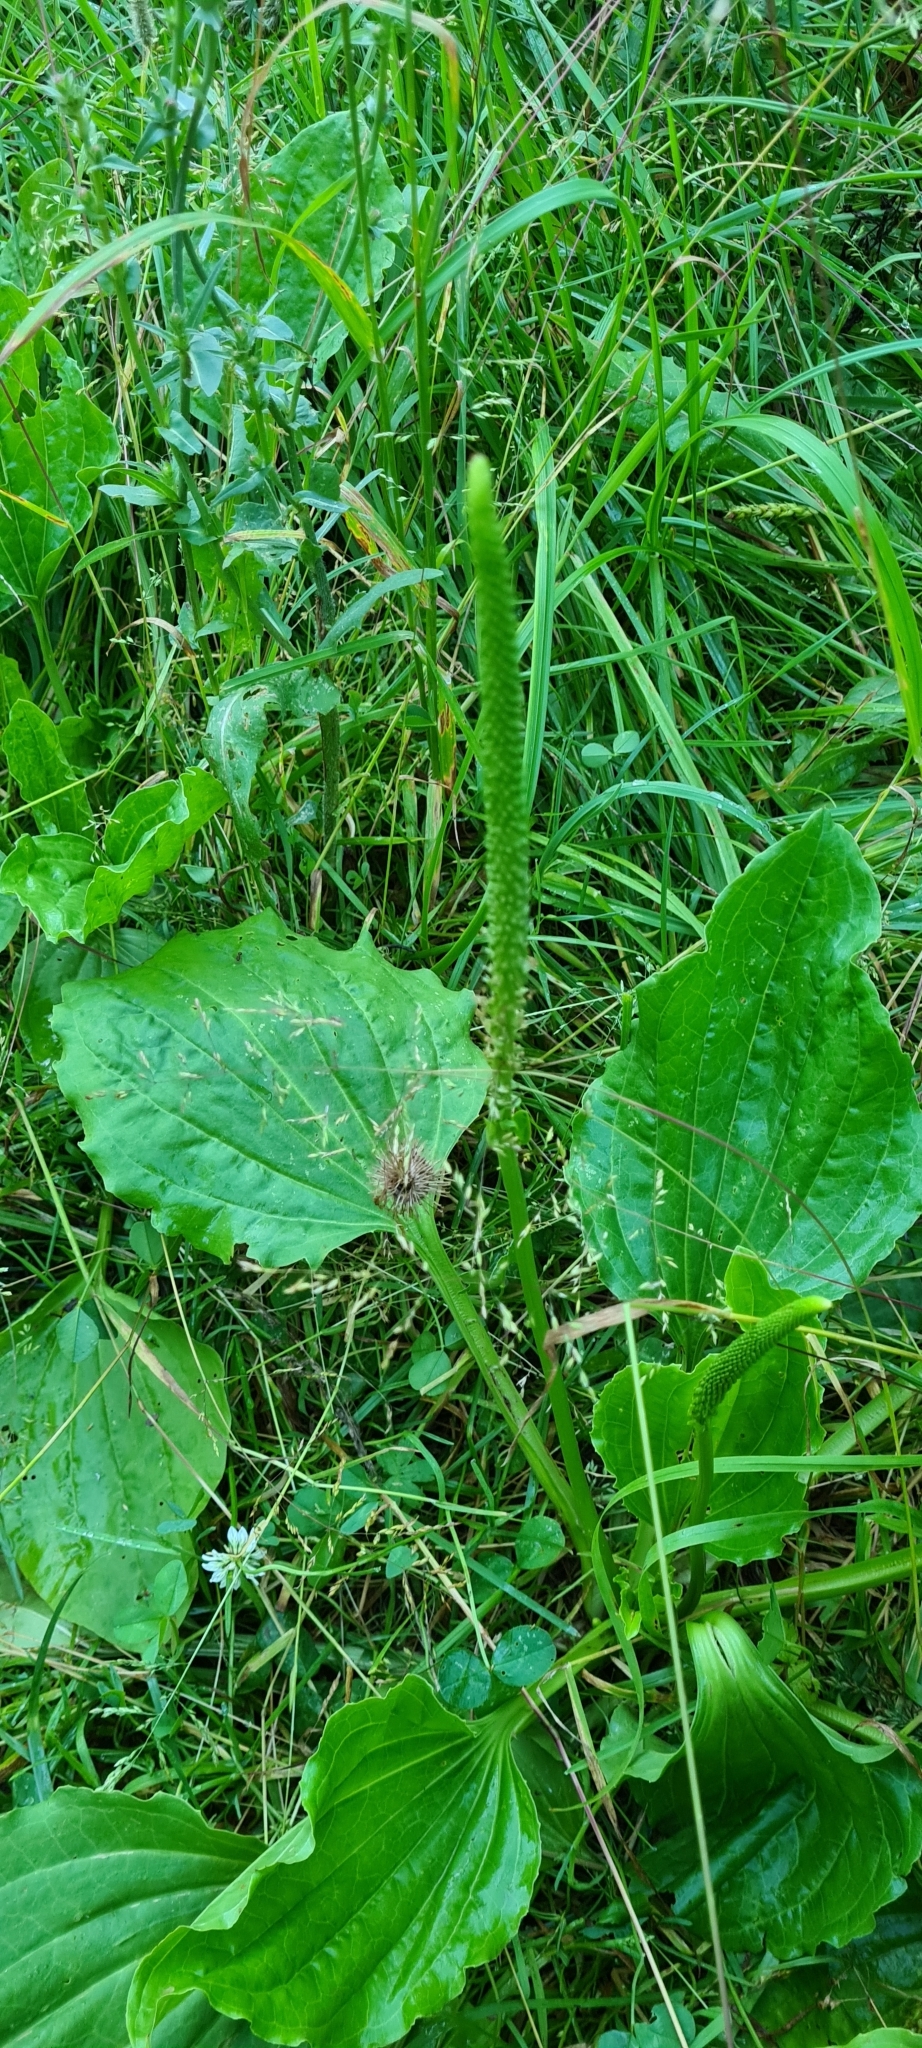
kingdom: Plantae
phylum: Tracheophyta
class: Magnoliopsida
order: Lamiales
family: Plantaginaceae
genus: Plantago
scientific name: Plantago major
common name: Common plantain
